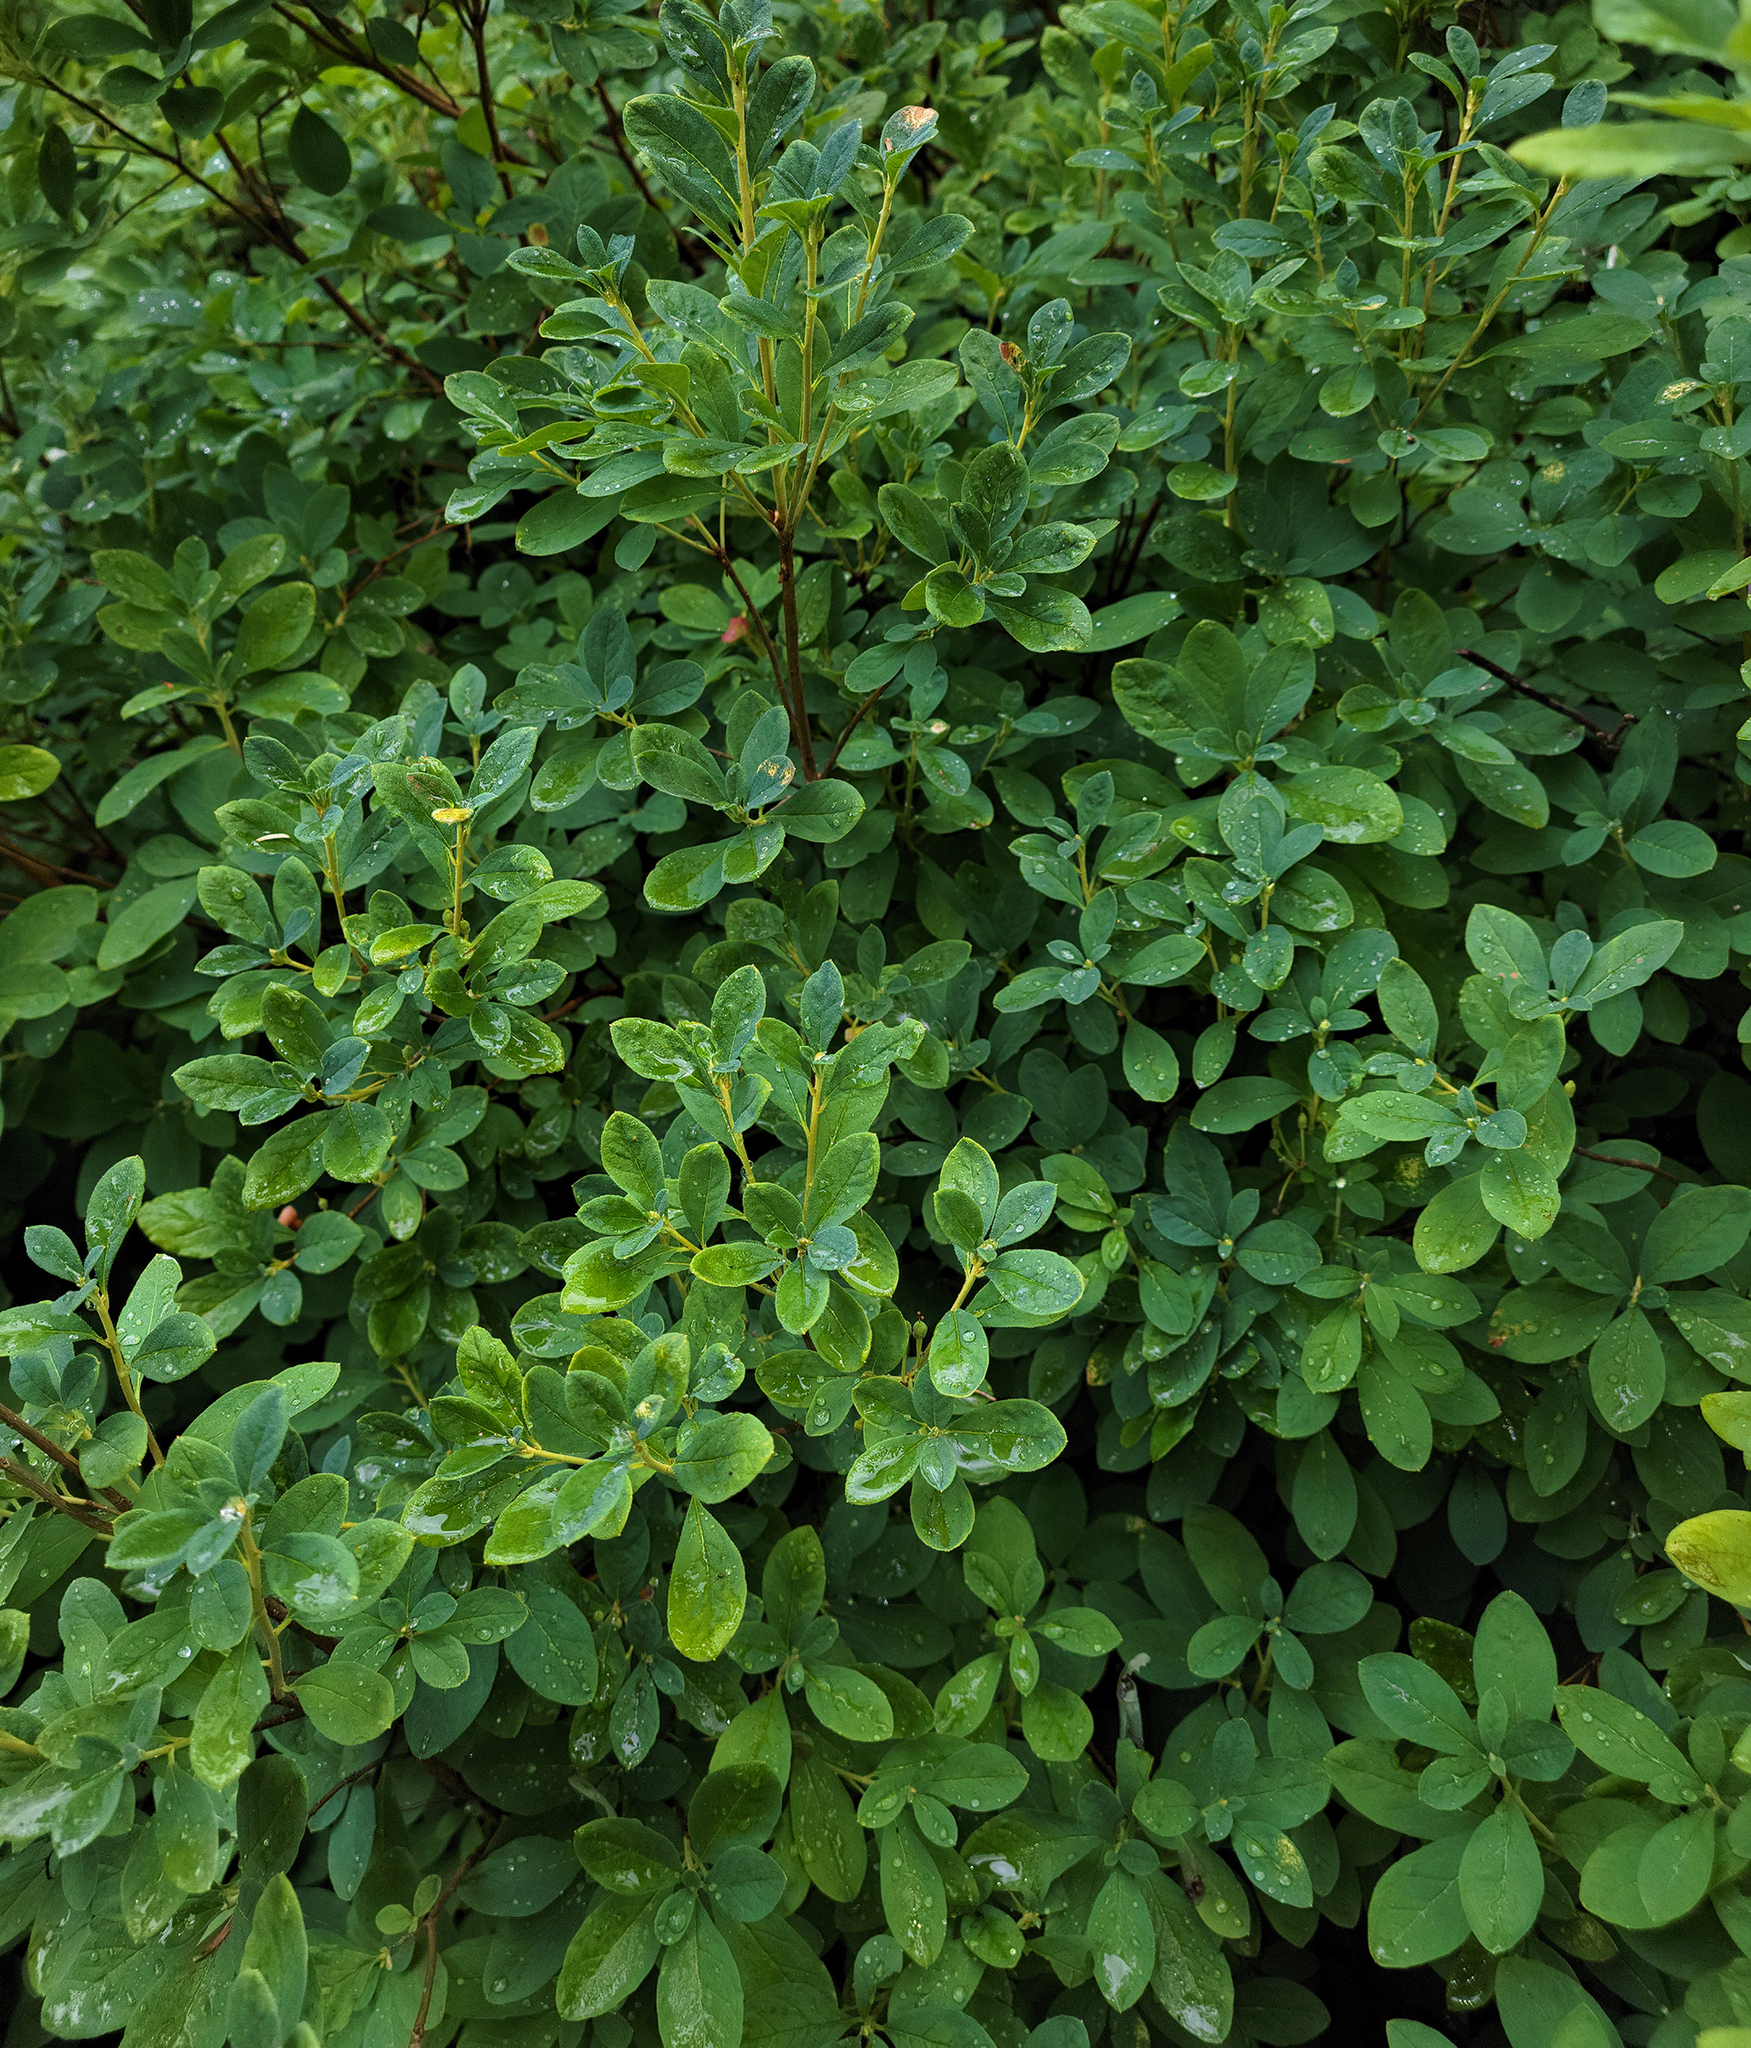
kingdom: Plantae
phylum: Tracheophyta
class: Magnoliopsida
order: Ericales
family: Ericaceae
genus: Rhododendron
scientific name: Rhododendron menziesii
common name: Pacific menziesia
